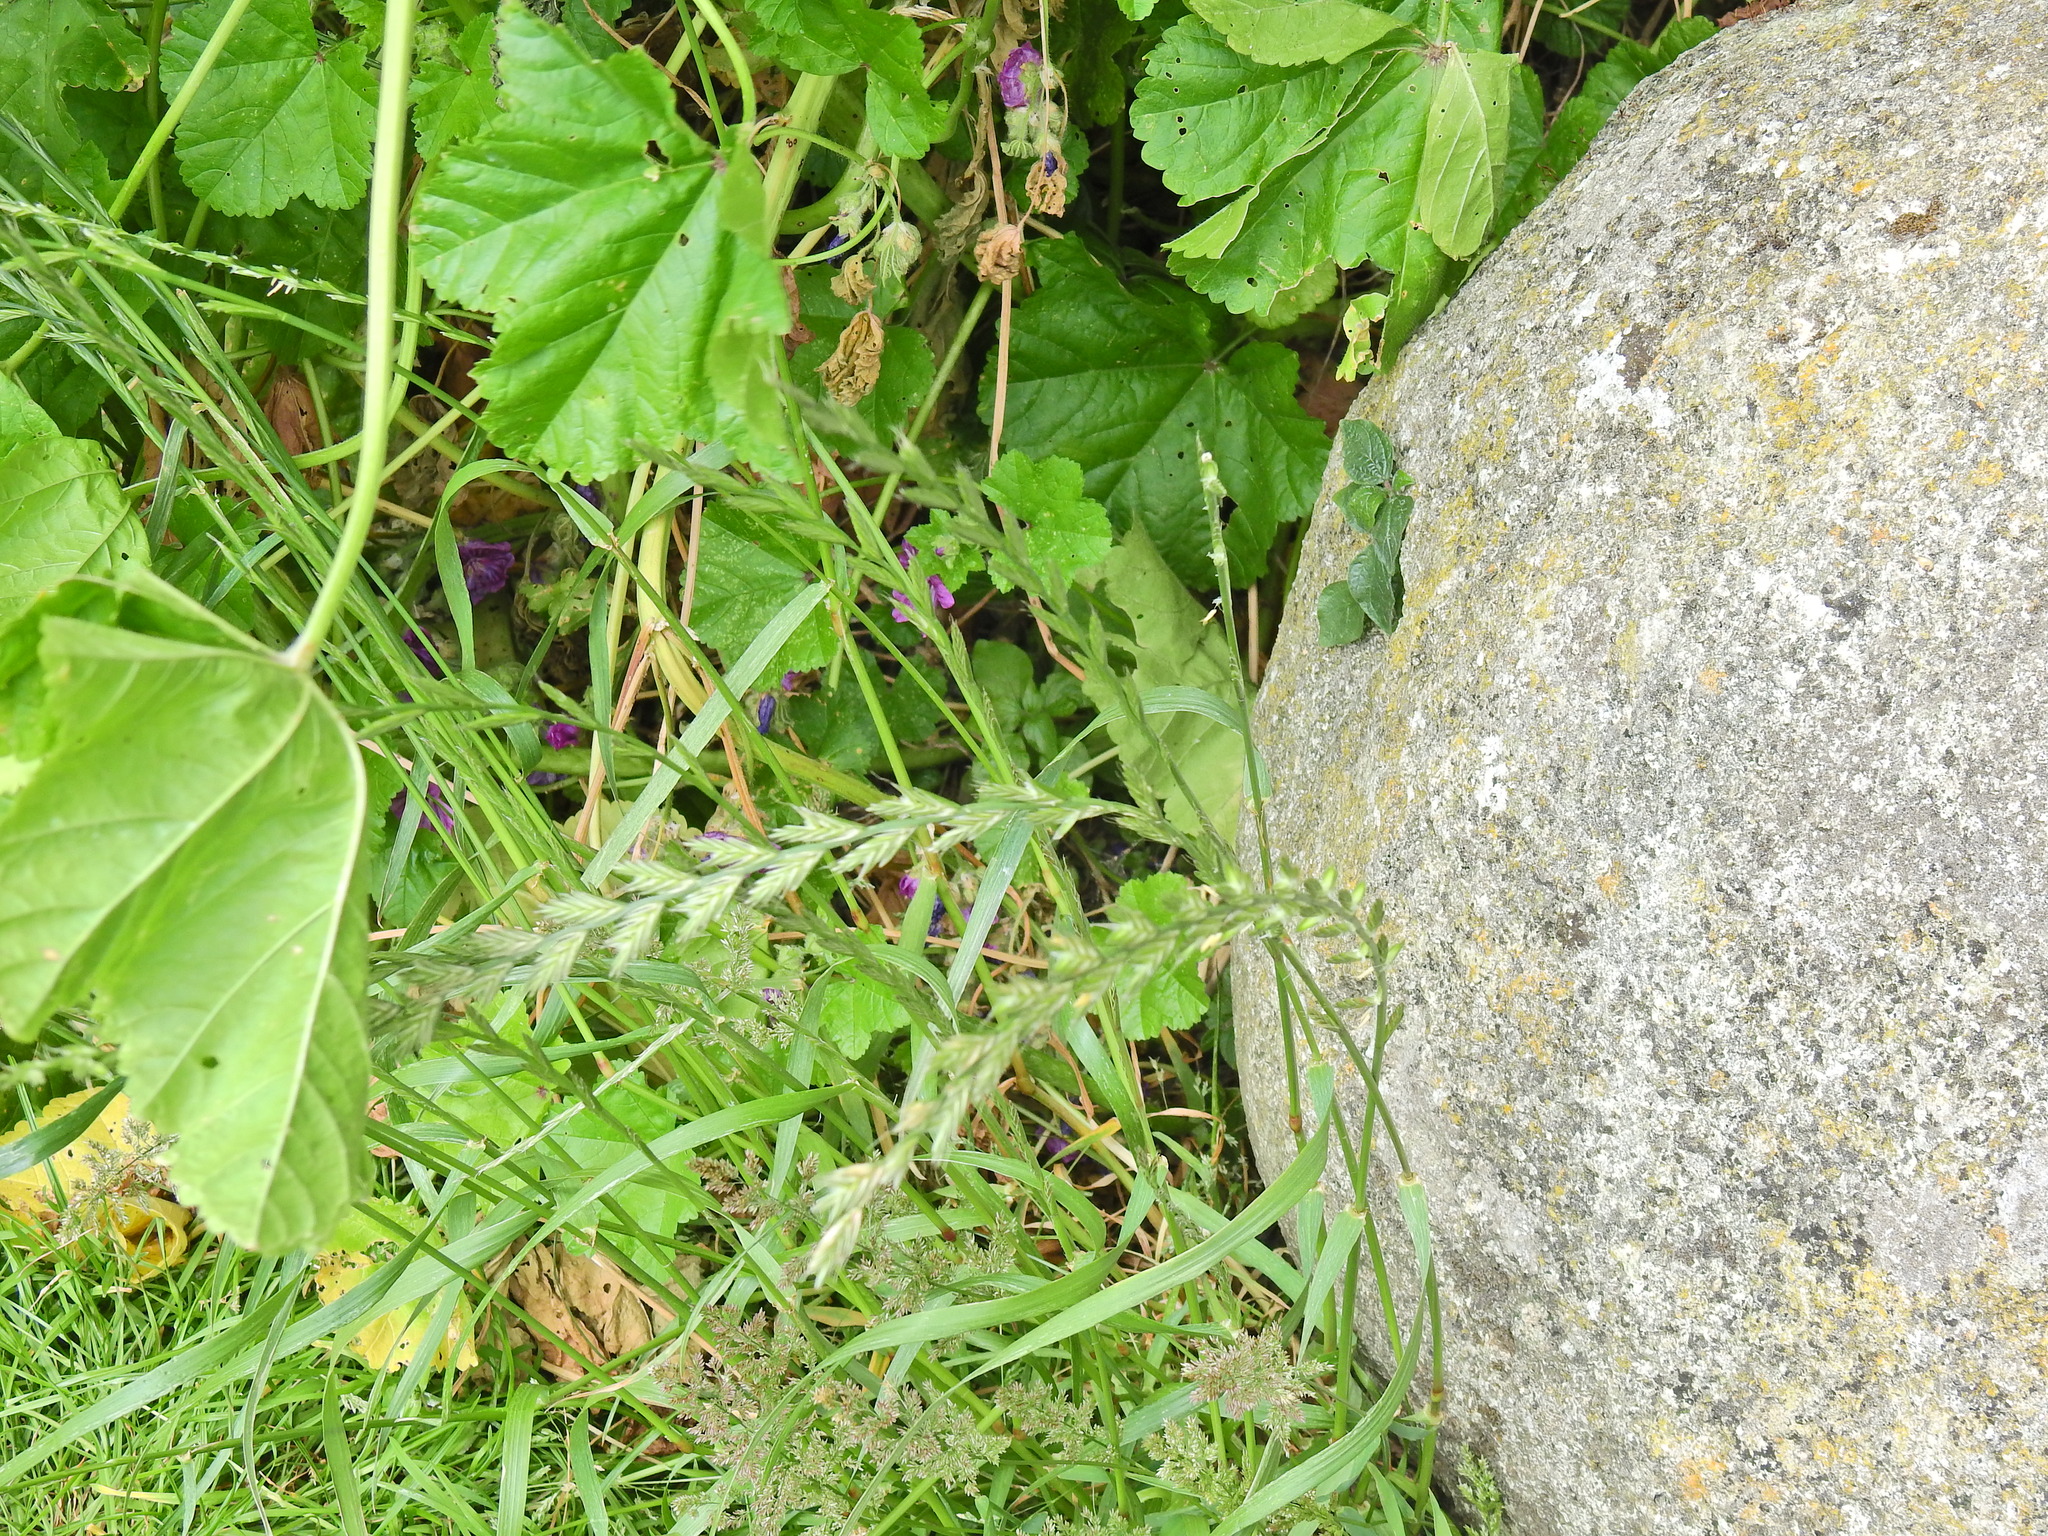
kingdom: Plantae
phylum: Tracheophyta
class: Liliopsida
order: Poales
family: Poaceae
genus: Lolium
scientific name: Lolium perenne
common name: Perennial ryegrass
